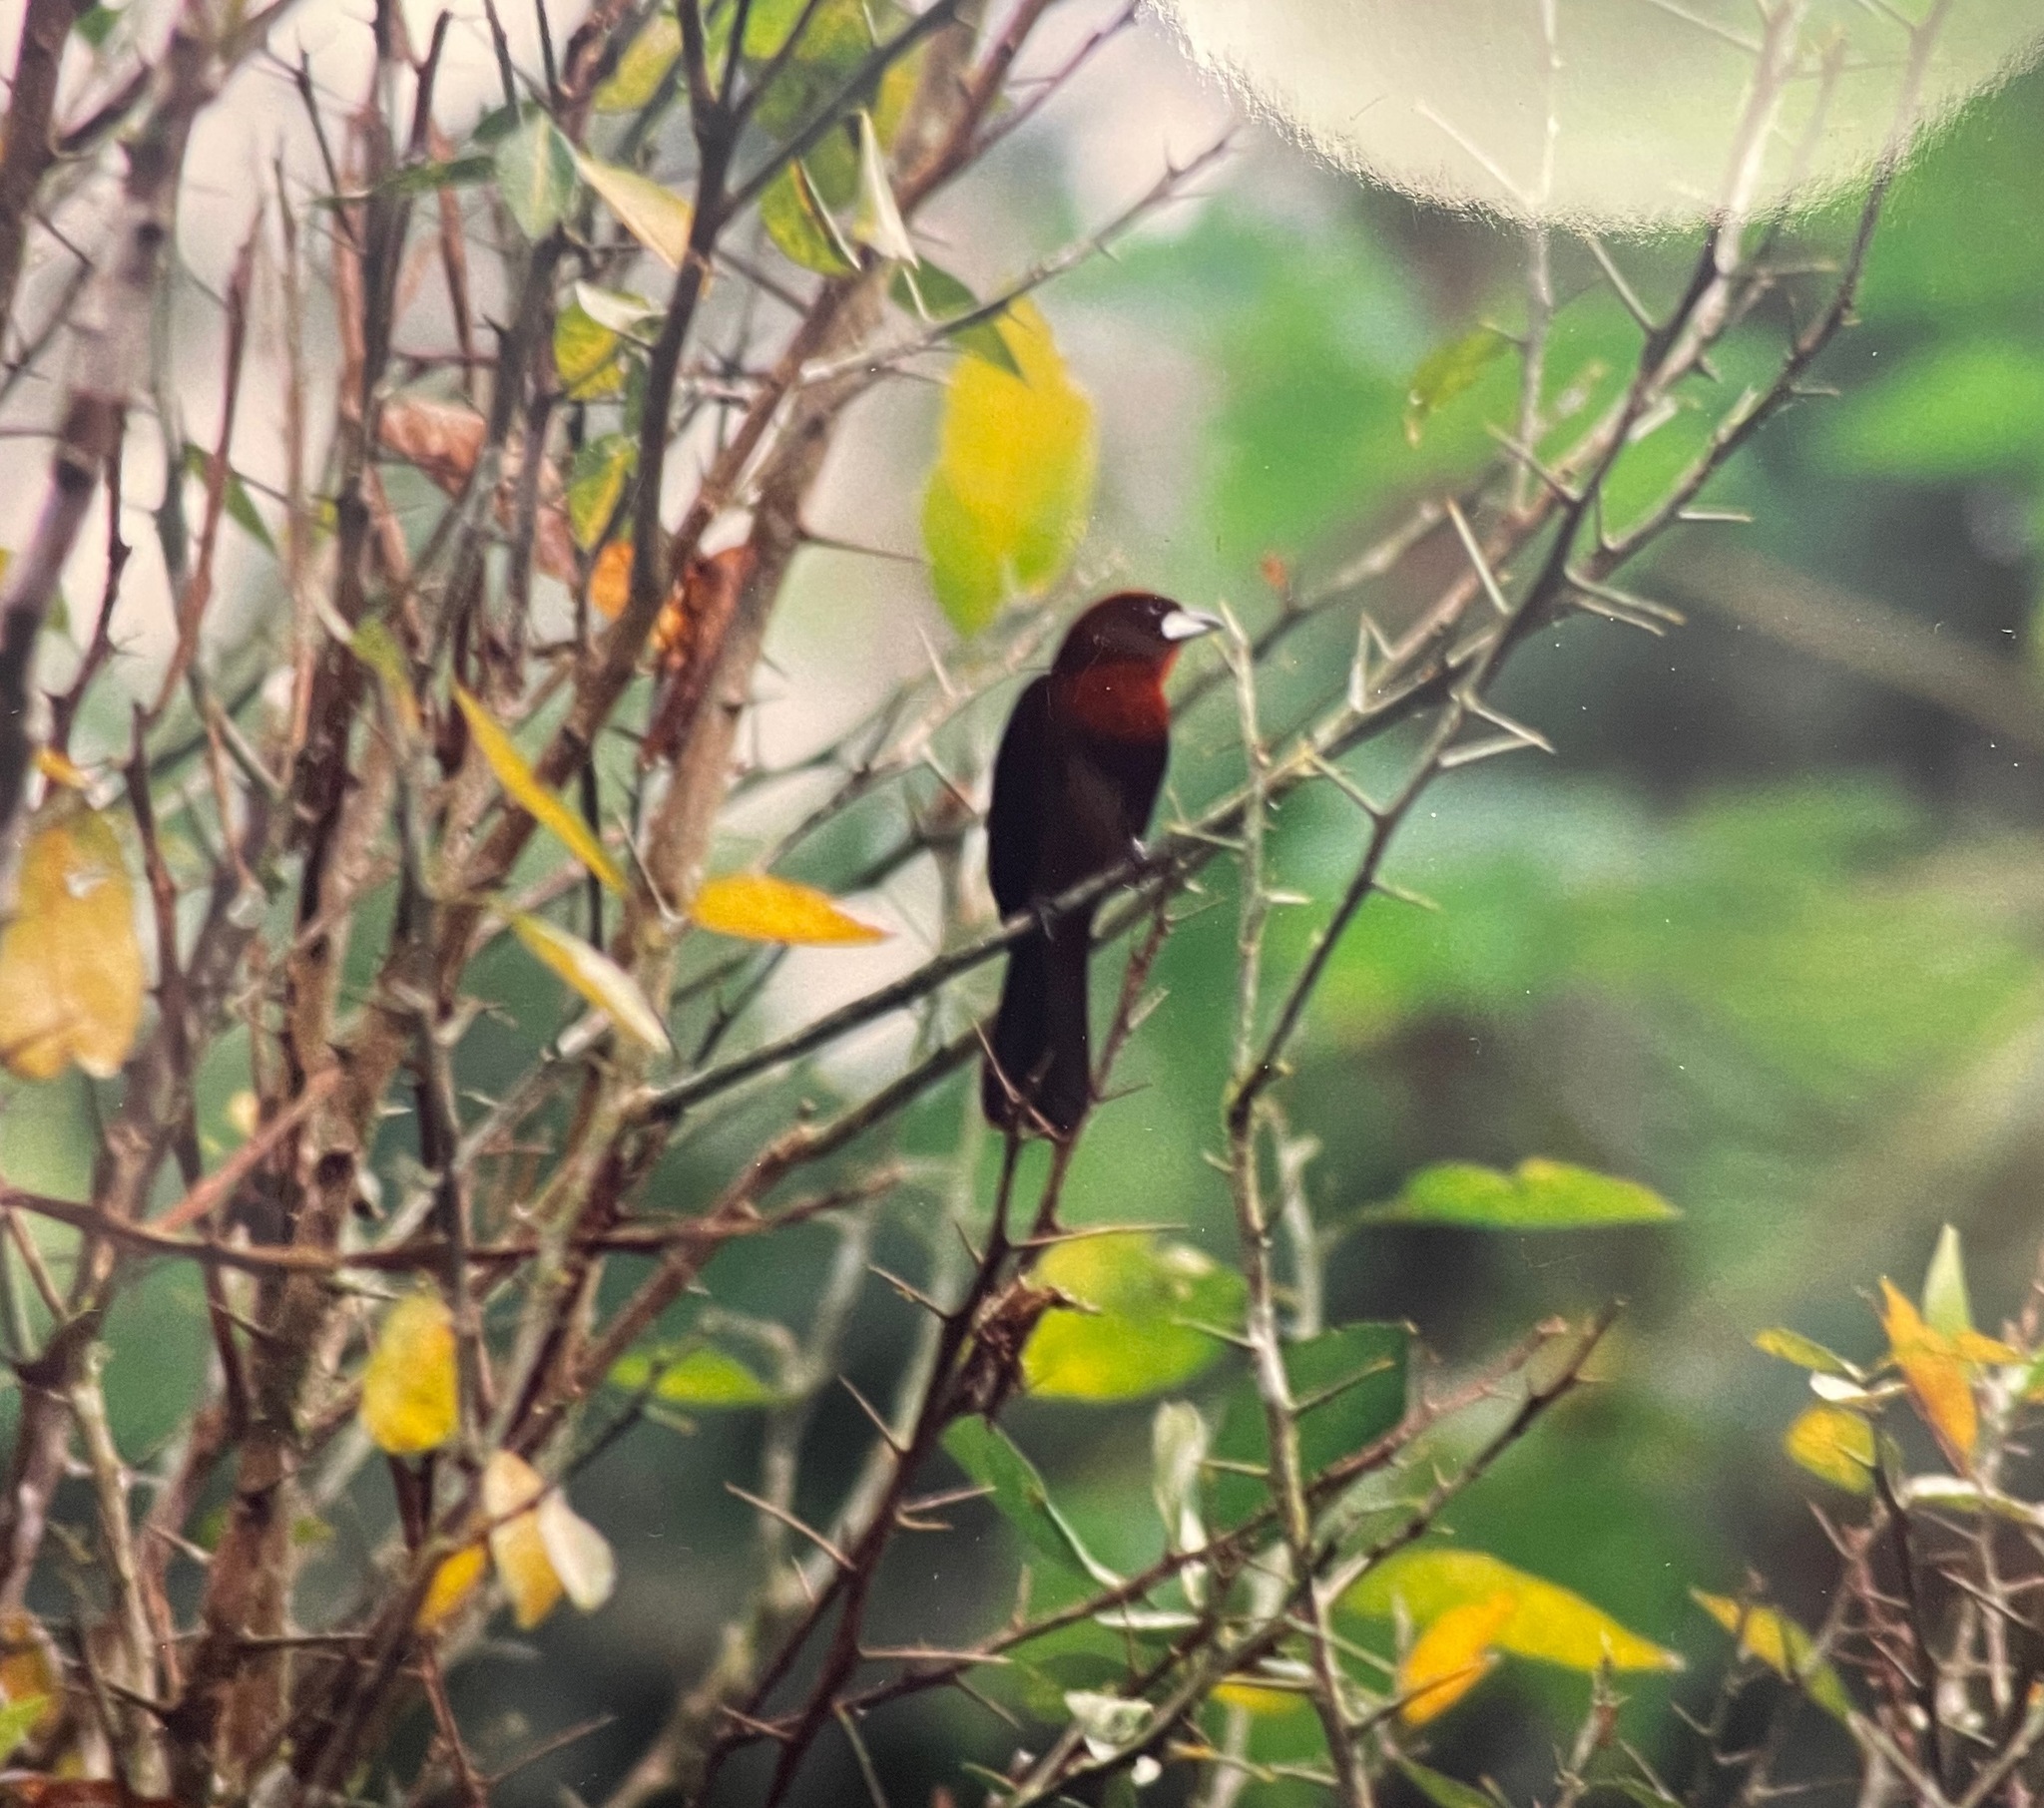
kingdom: Animalia
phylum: Chordata
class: Aves
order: Passeriformes
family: Thraupidae
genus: Ramphocelus
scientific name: Ramphocelus carbo
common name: Silver-beaked tanager
